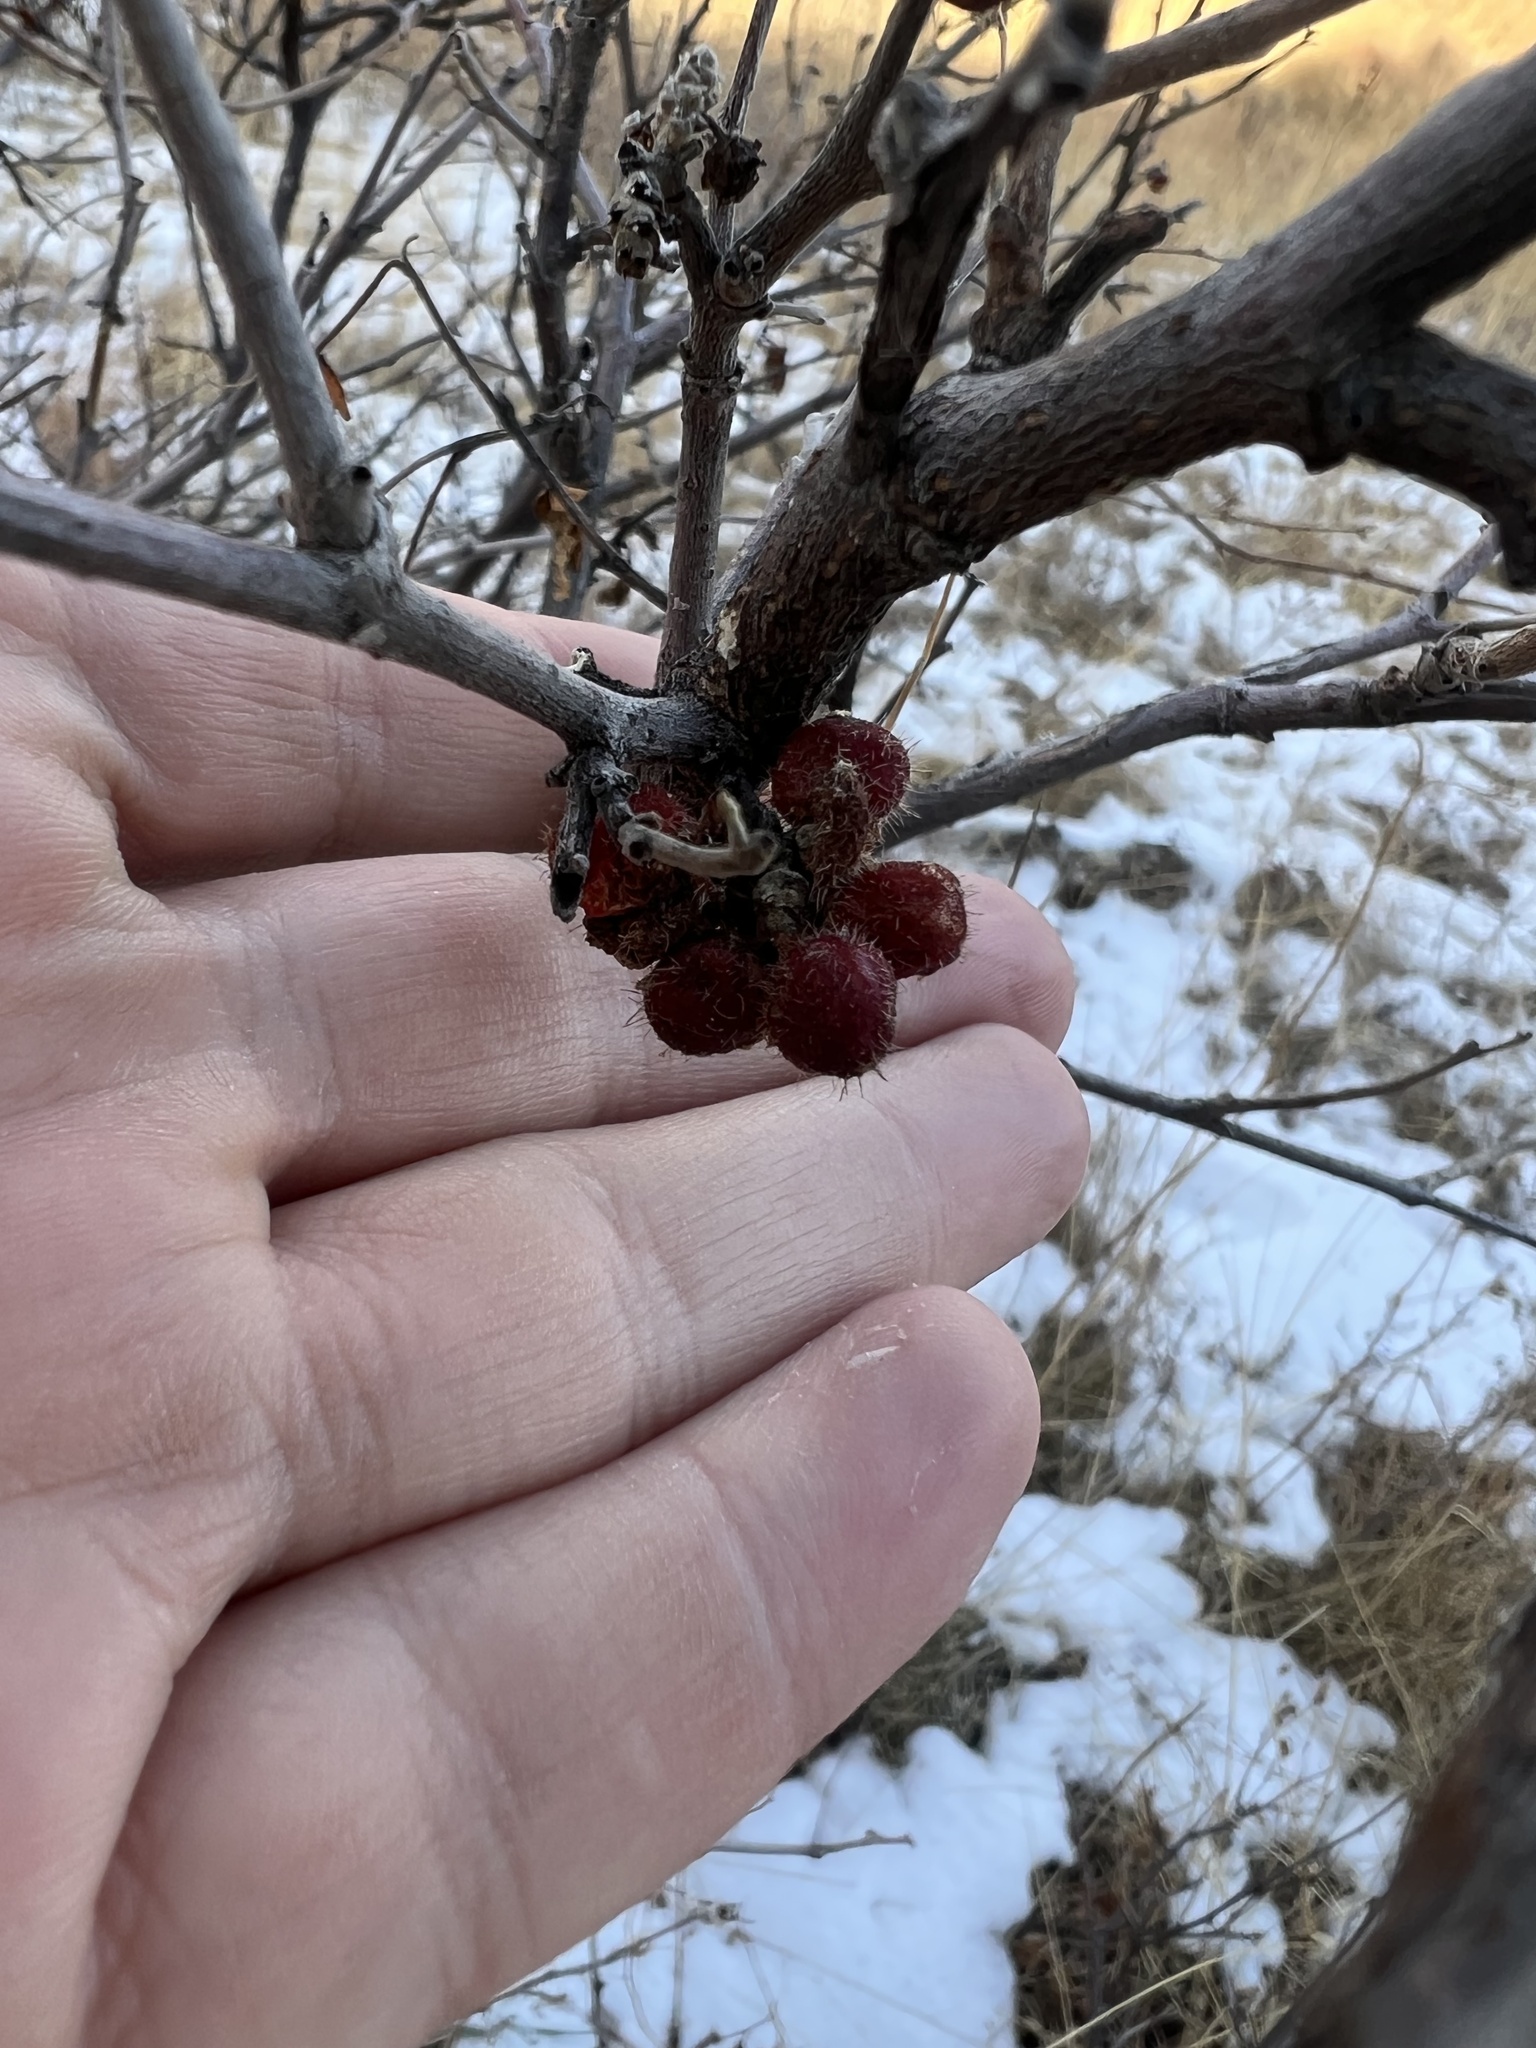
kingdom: Plantae
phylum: Tracheophyta
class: Magnoliopsida
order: Sapindales
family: Anacardiaceae
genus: Rhus
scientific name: Rhus trilobata
